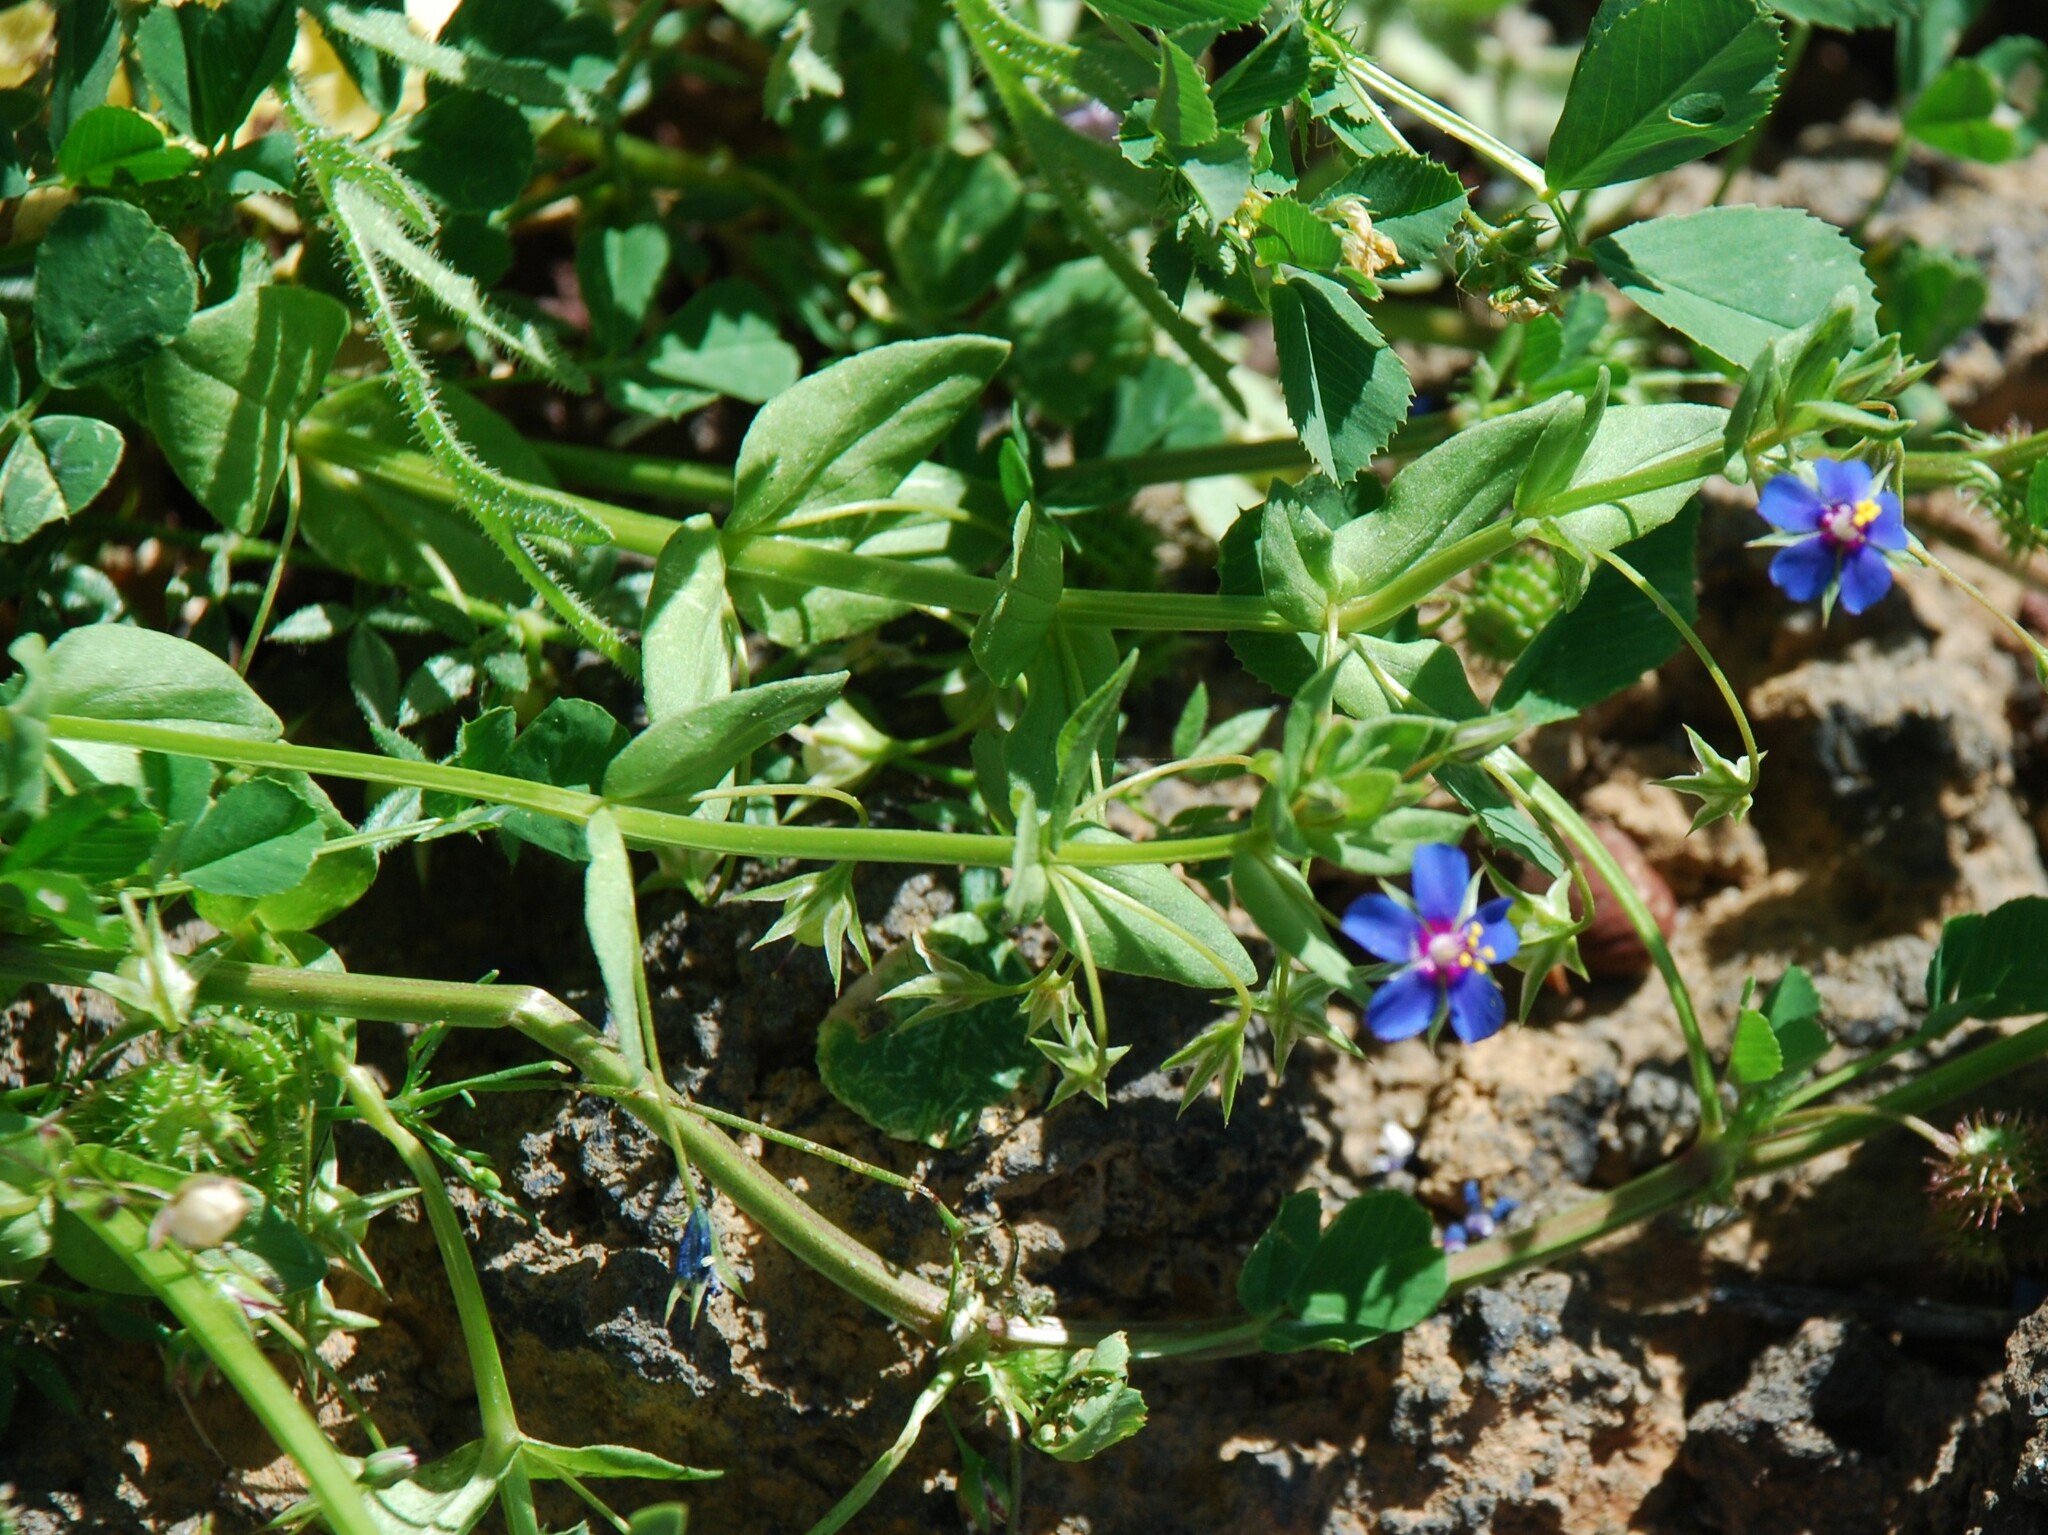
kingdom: Plantae
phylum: Tracheophyta
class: Magnoliopsida
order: Ericales
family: Primulaceae
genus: Lysimachia
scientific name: Lysimachia loeflingii
